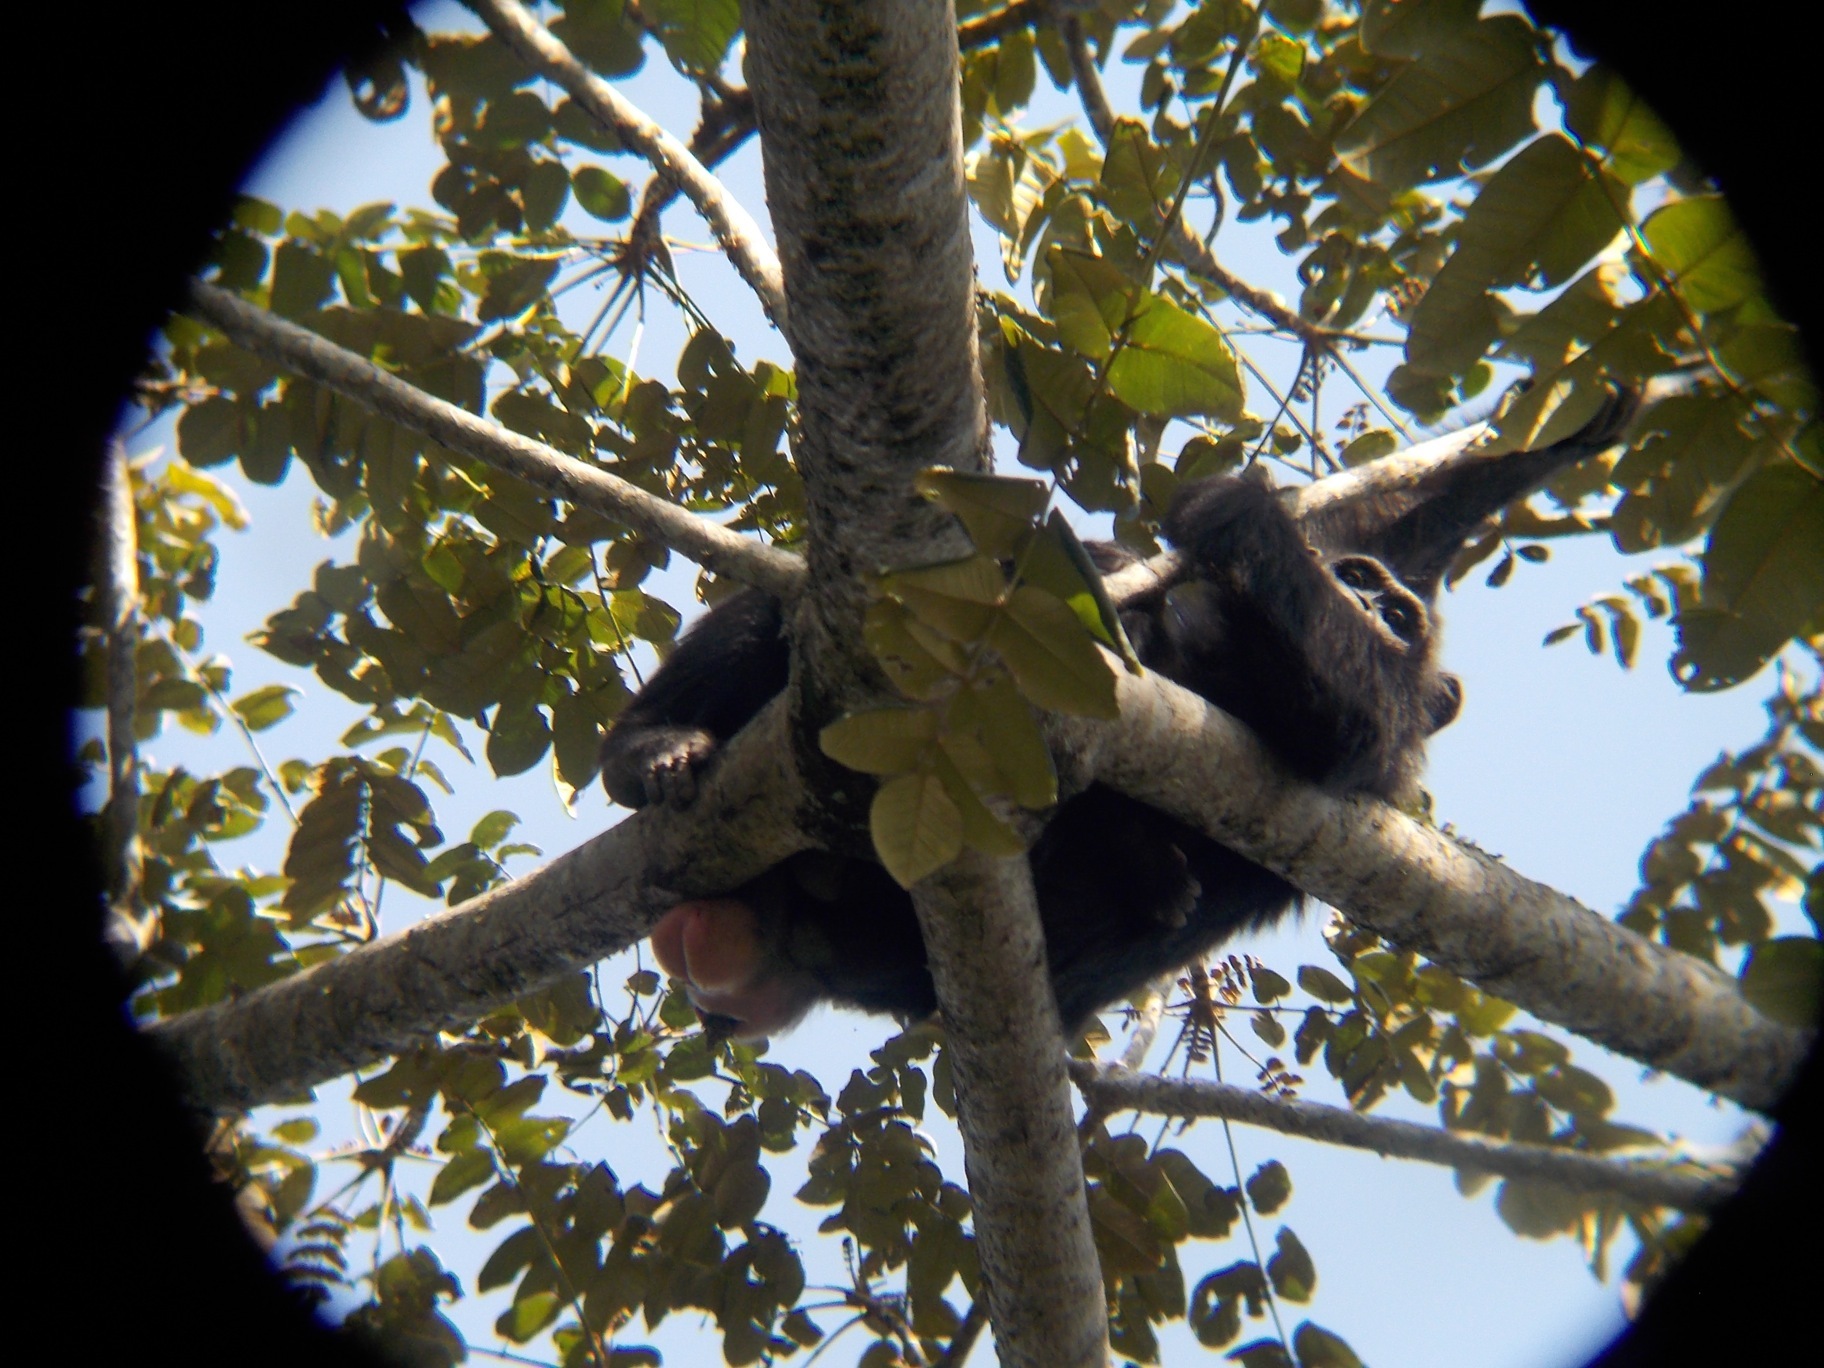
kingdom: Animalia
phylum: Chordata
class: Mammalia
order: Primates
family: Hominidae
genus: Pan
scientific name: Pan troglodytes
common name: Chimpanzee
